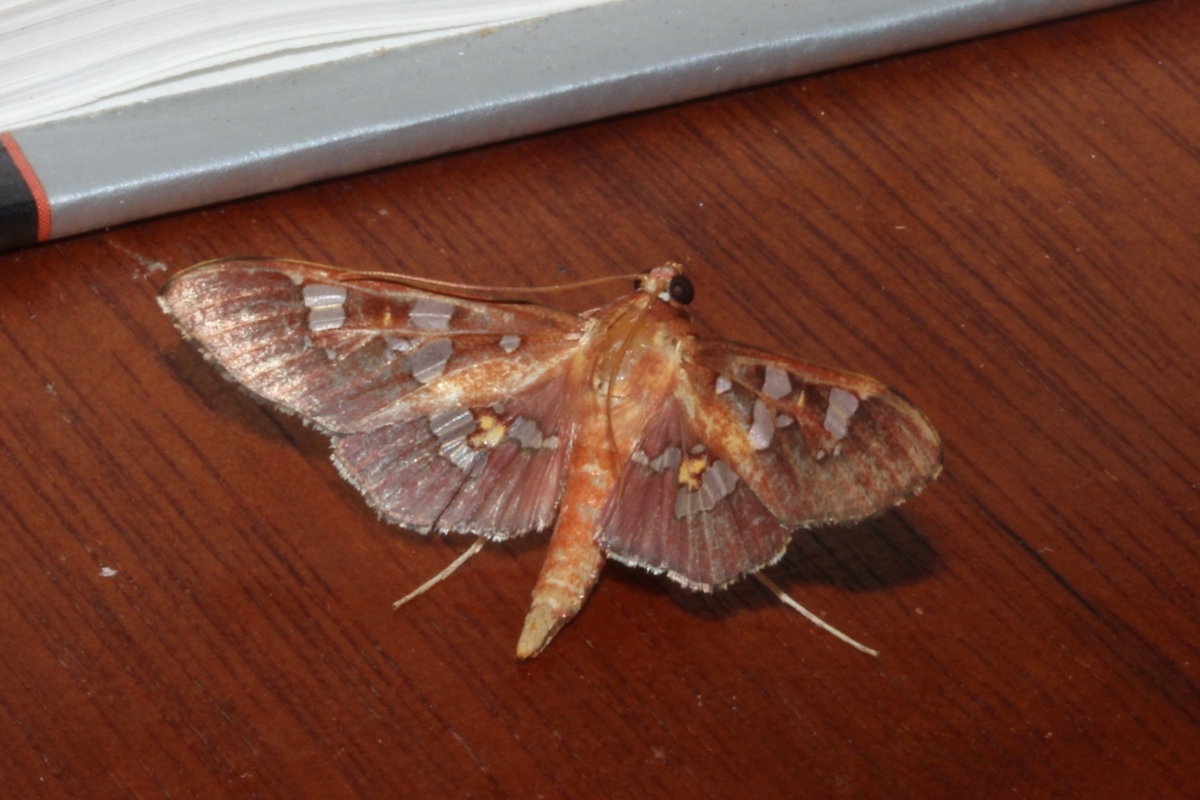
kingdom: Animalia
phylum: Arthropoda
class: Insecta
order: Lepidoptera
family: Crambidae
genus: Phostria
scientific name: Phostria
